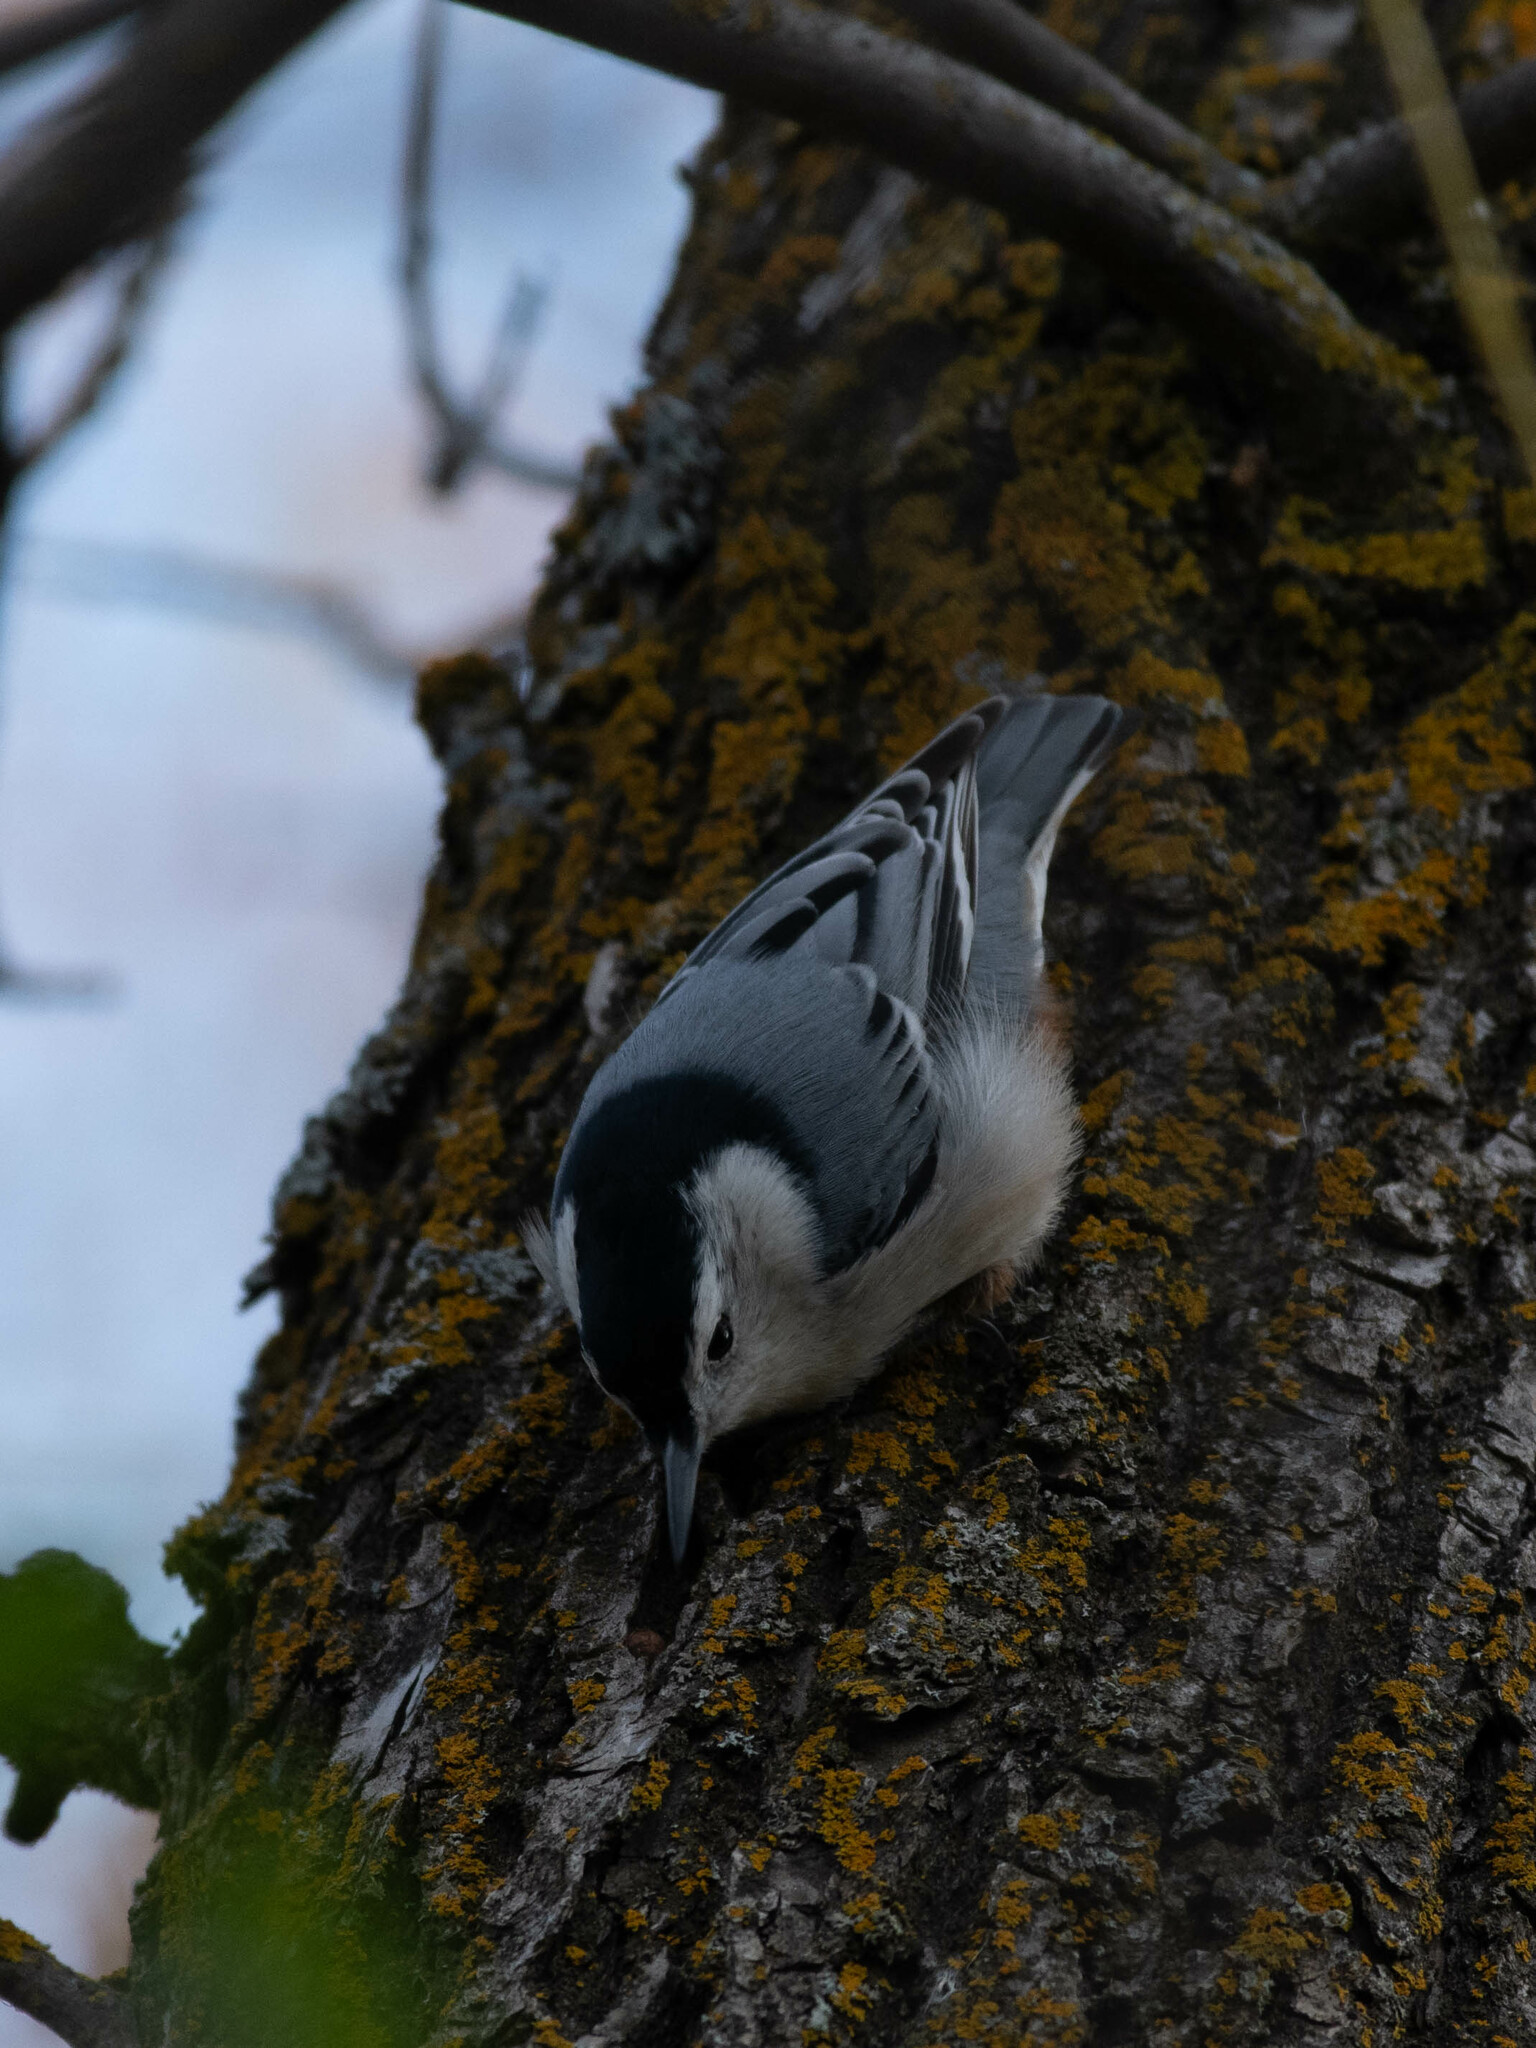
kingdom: Animalia
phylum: Chordata
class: Aves
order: Passeriformes
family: Sittidae
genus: Sitta
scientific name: Sitta carolinensis
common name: White-breasted nuthatch
